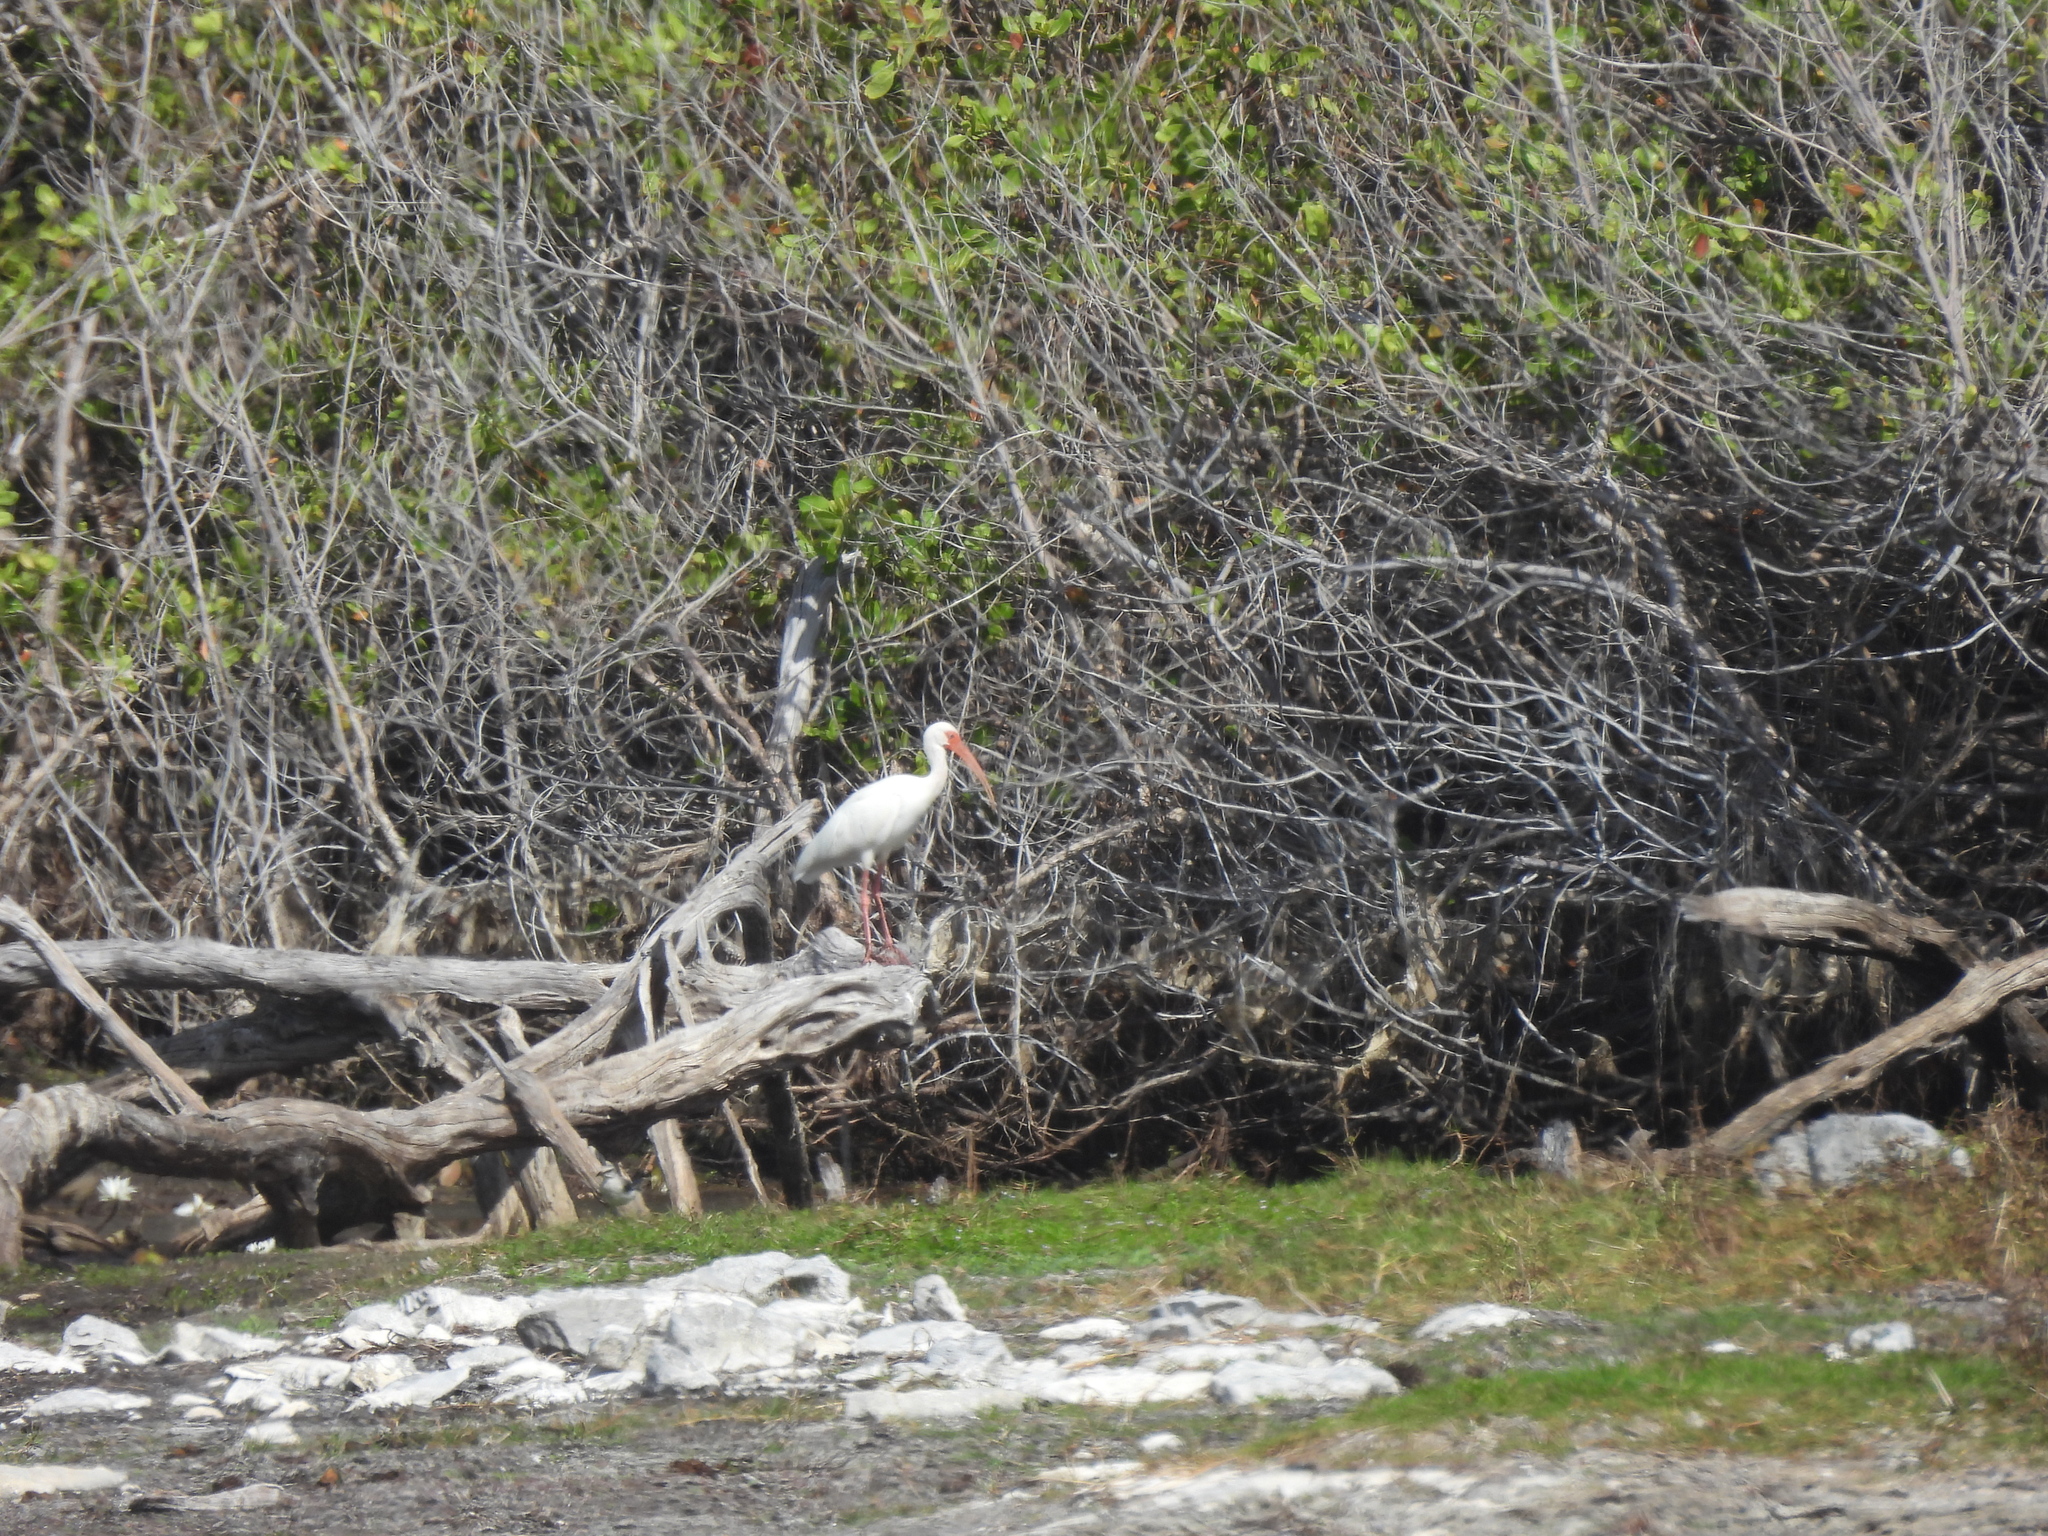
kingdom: Animalia
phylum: Chordata
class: Aves
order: Pelecaniformes
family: Threskiornithidae
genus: Eudocimus
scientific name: Eudocimus albus
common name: White ibis
